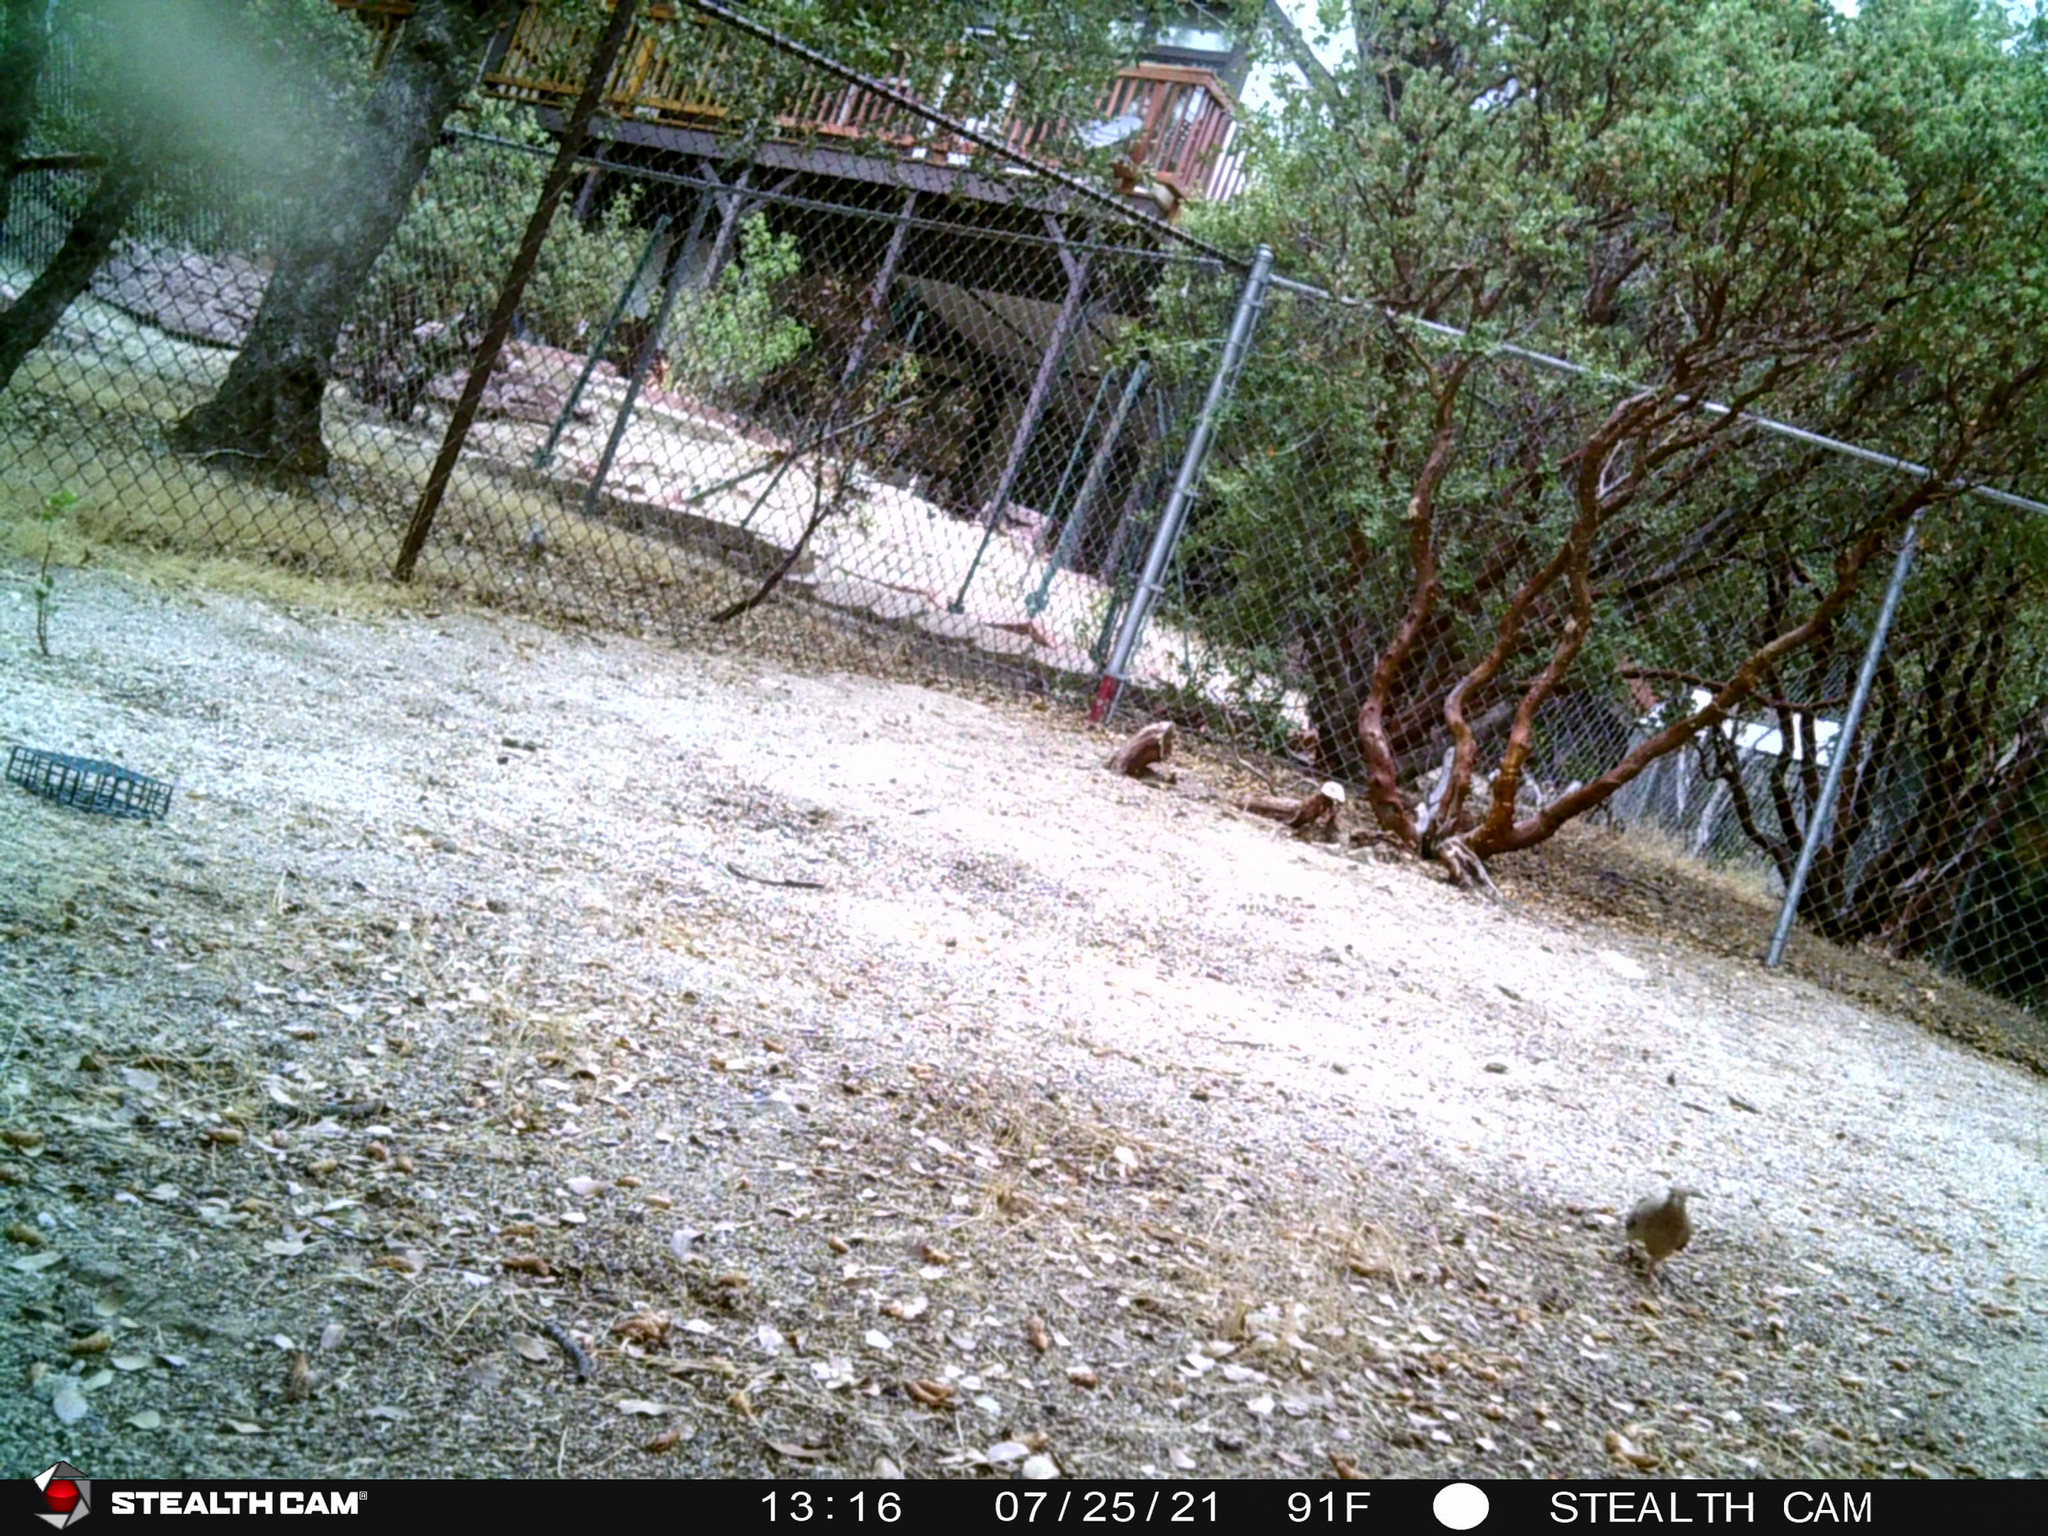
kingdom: Animalia
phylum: Chordata
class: Aves
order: Columbiformes
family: Columbidae
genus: Zenaida
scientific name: Zenaida macroura
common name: Mourning dove
